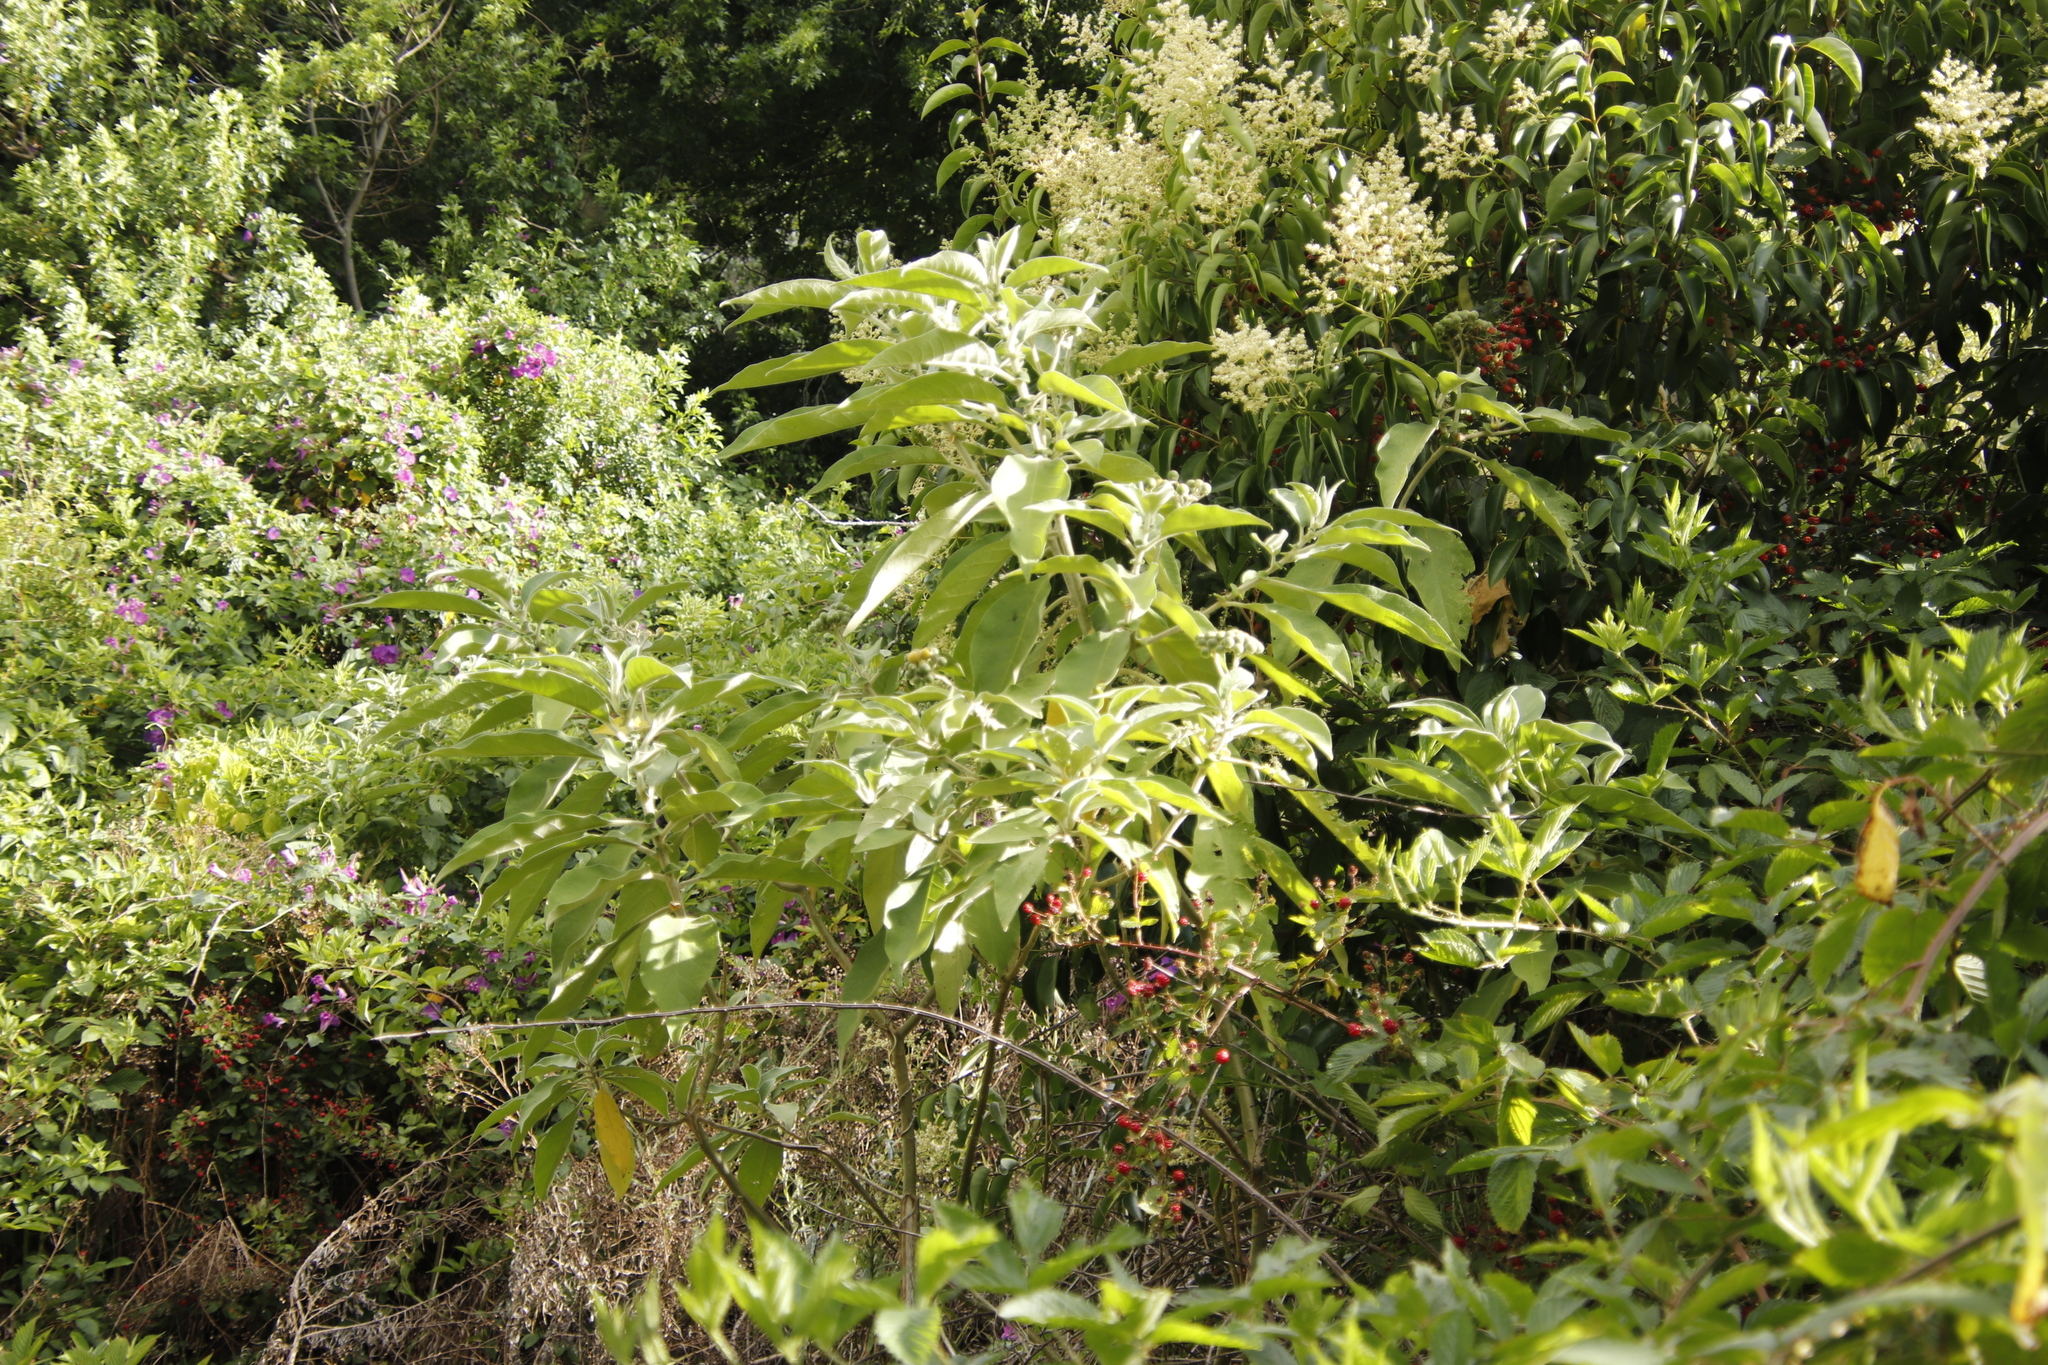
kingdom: Plantae
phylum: Tracheophyta
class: Magnoliopsida
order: Solanales
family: Solanaceae
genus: Solanum
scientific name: Solanum mauritianum
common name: Earleaf nightshade
